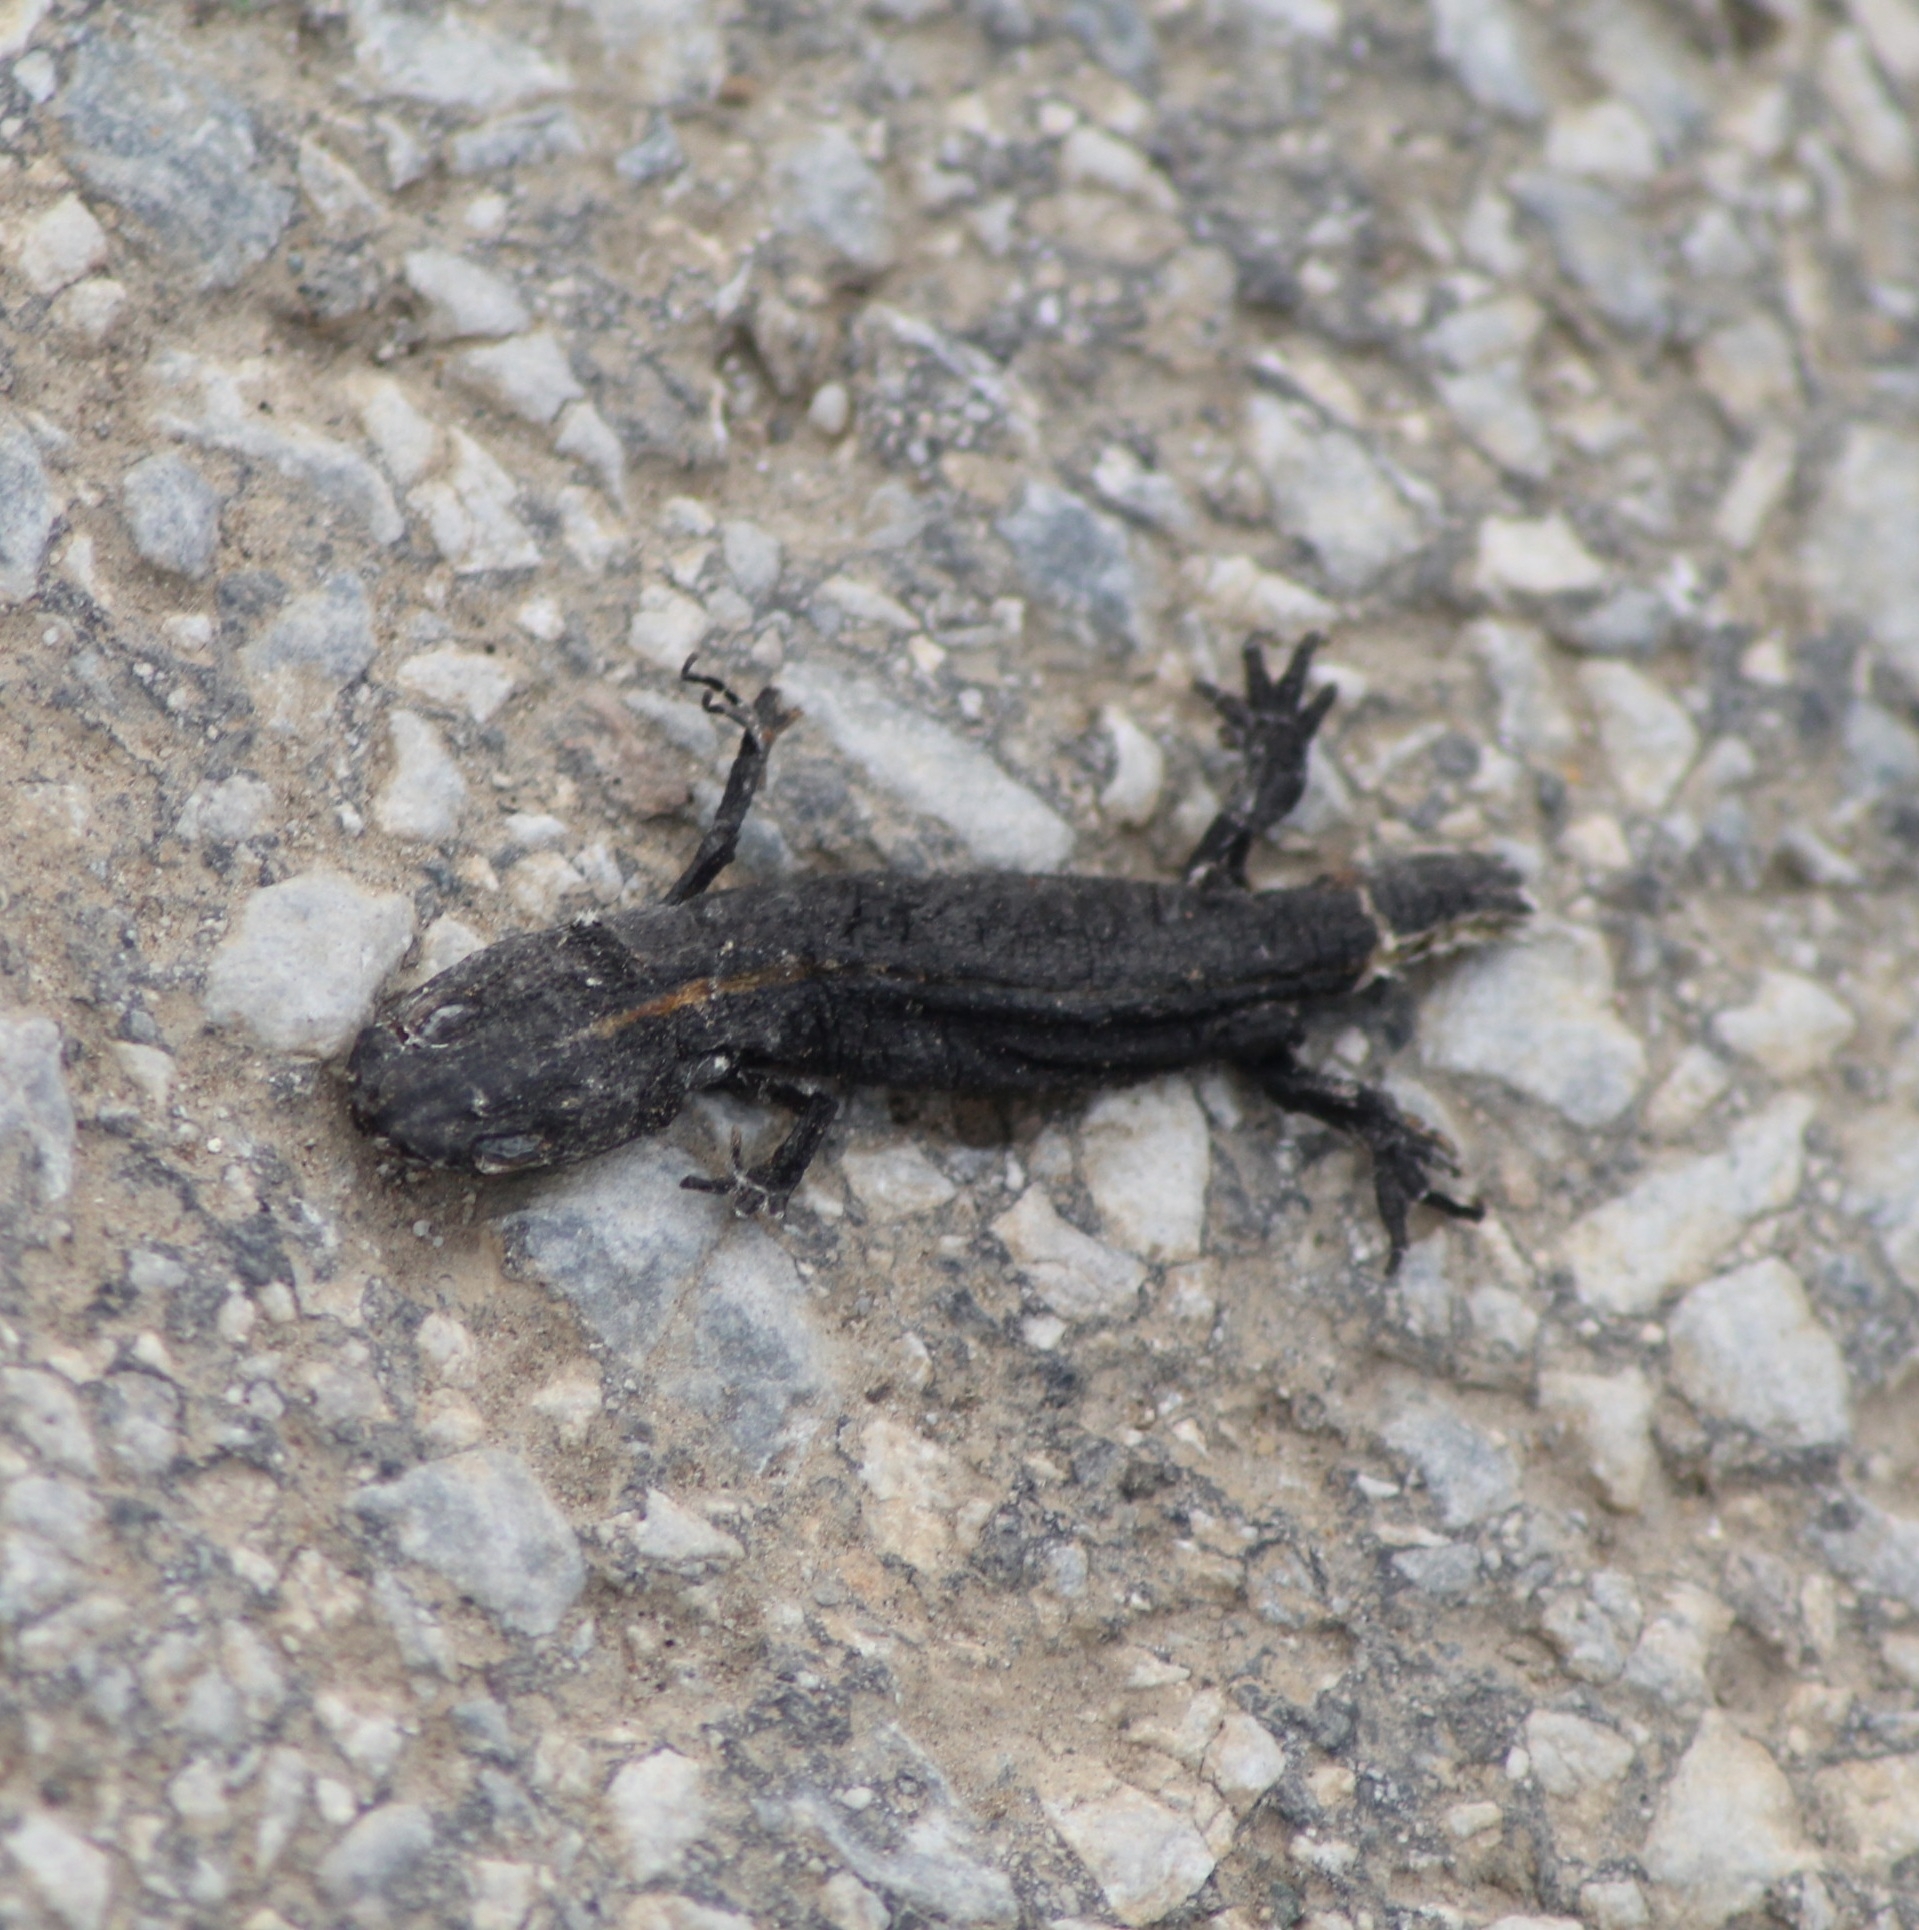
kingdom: Animalia
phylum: Chordata
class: Amphibia
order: Caudata
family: Salamandridae
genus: Triturus
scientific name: Triturus carnifex
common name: Italian crested newt
